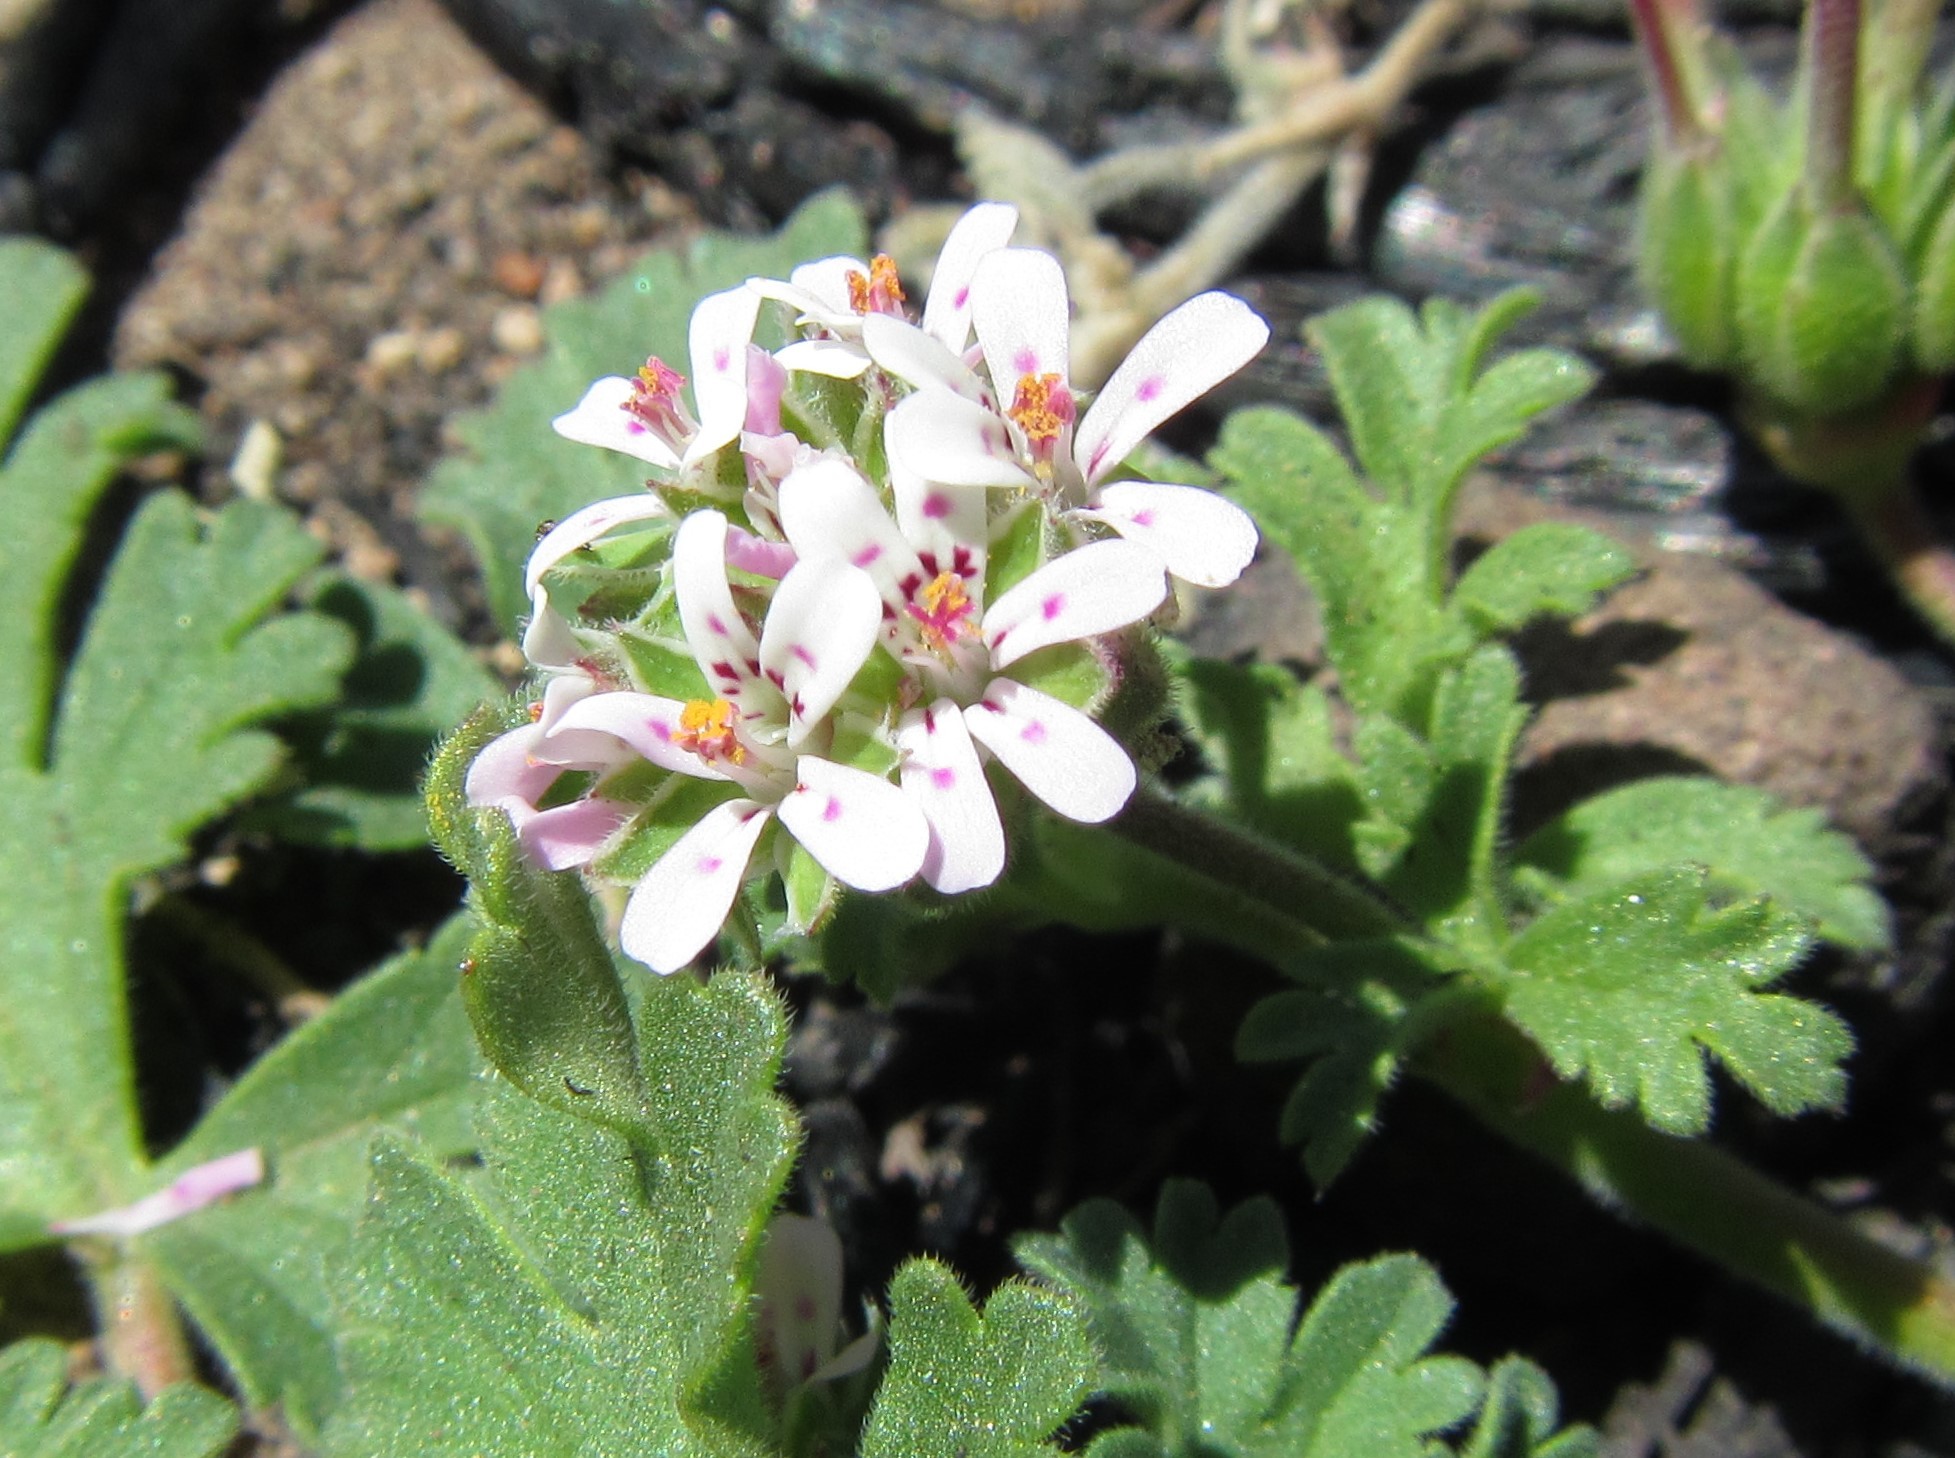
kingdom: Plantae
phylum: Tracheophyta
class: Magnoliopsida
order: Geraniales
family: Geraniaceae
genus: Pelargonium
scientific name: Pelargonium nanum
